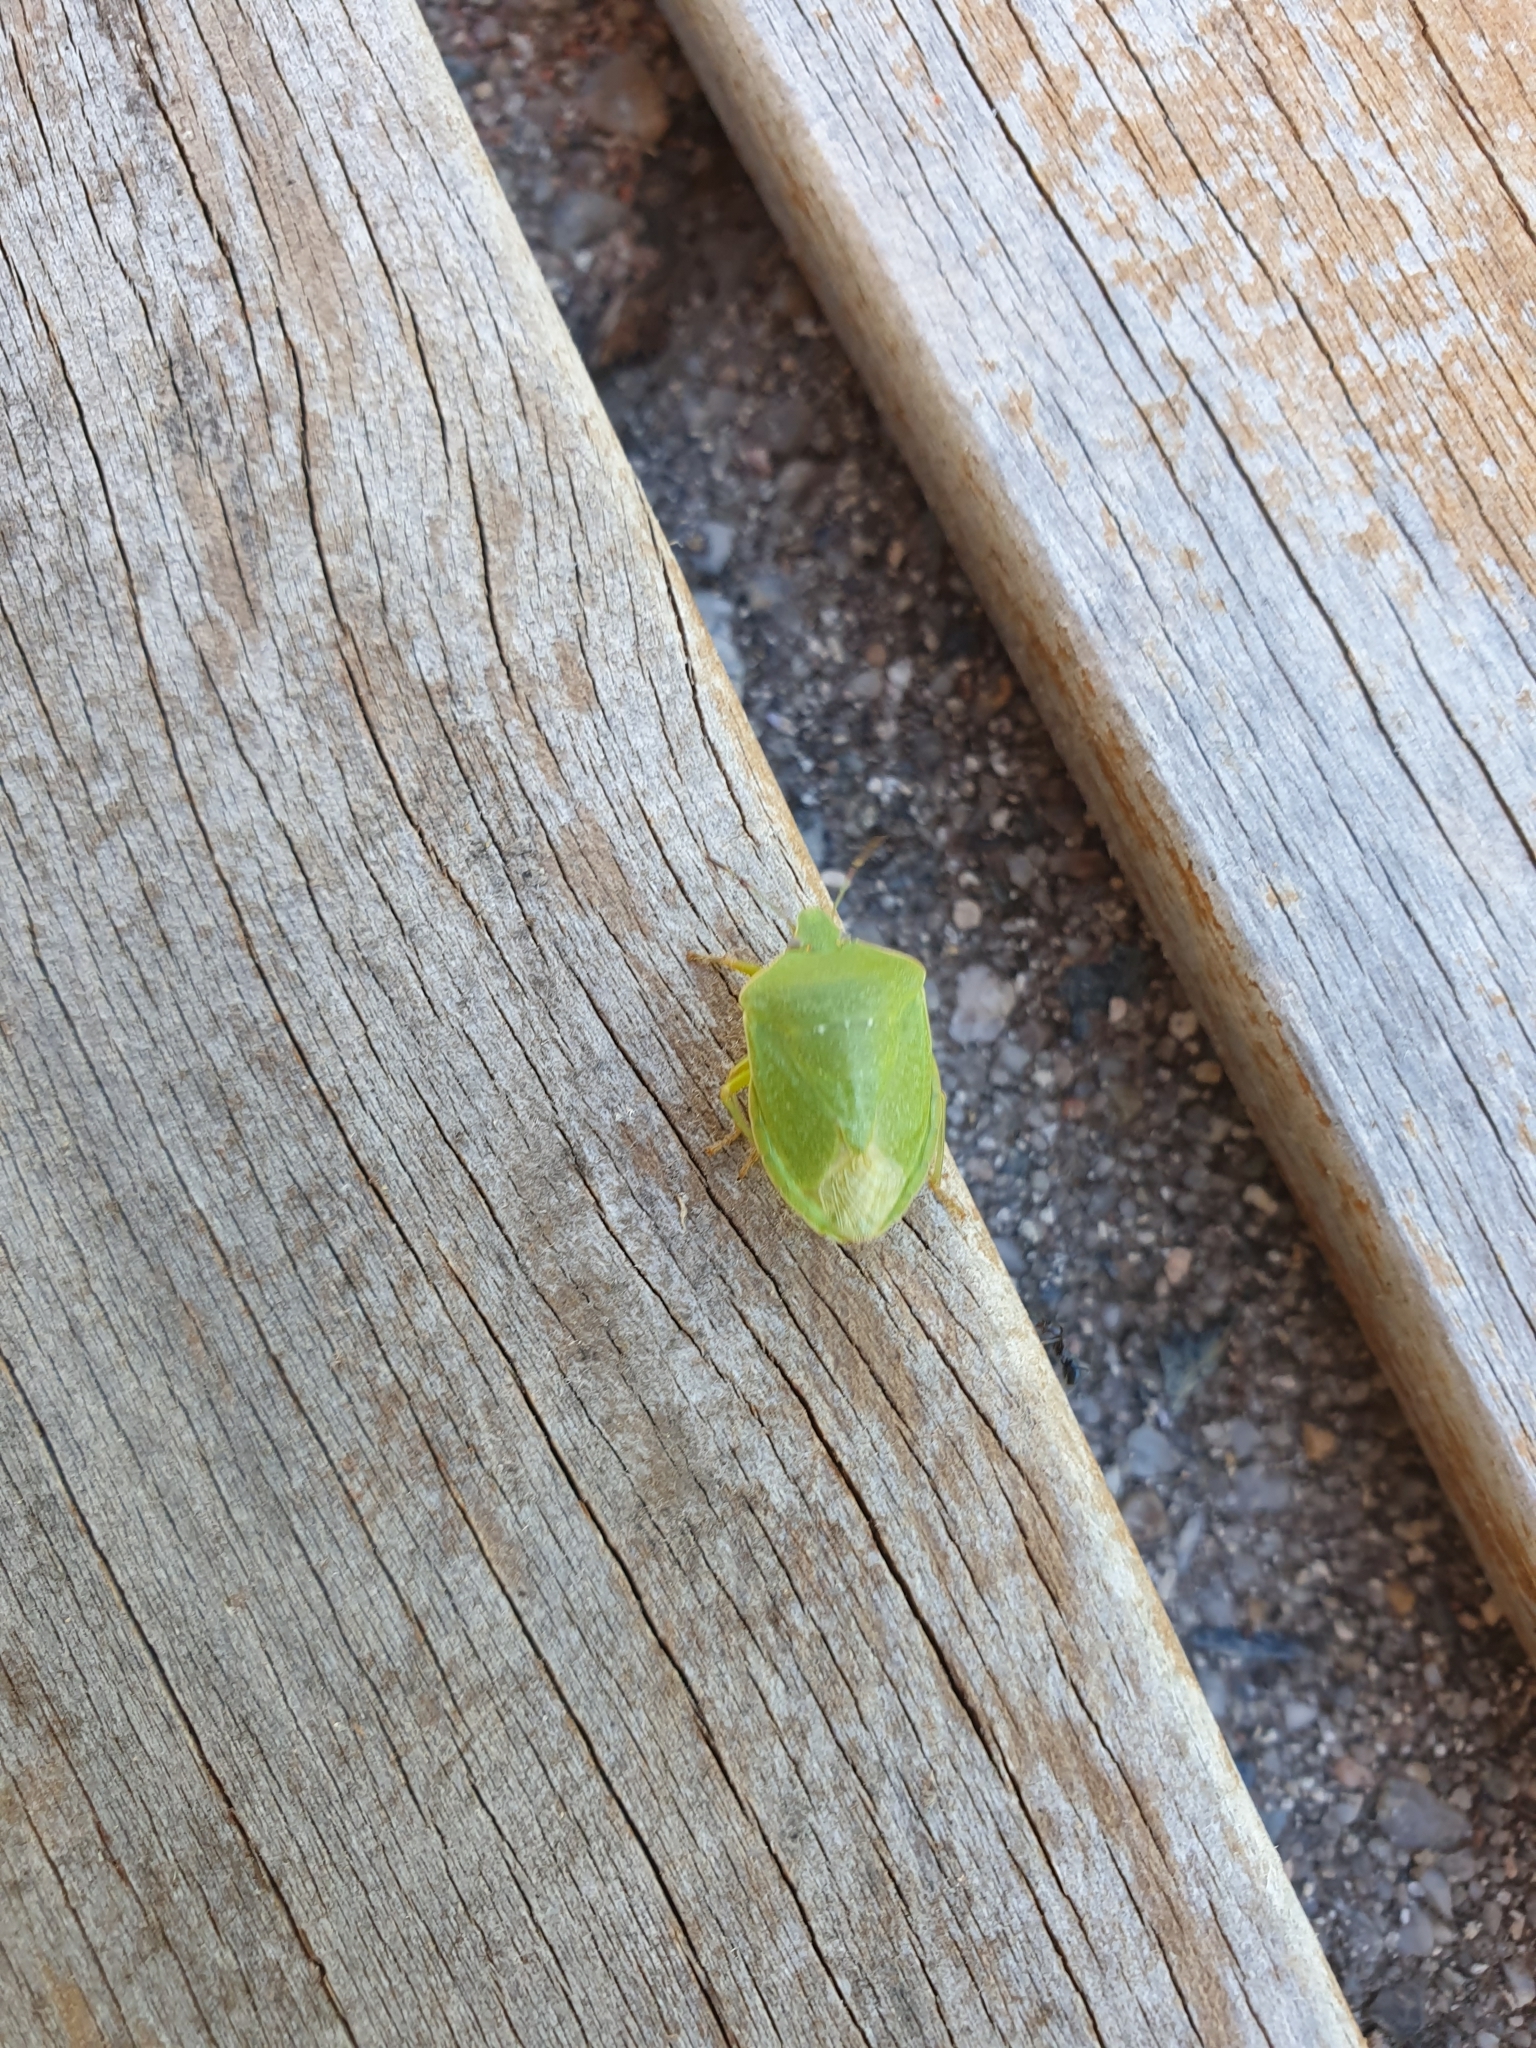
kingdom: Animalia
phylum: Arthropoda
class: Insecta
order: Hemiptera
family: Pentatomidae
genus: Nezara
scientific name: Nezara viridula
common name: Southern green stink bug
